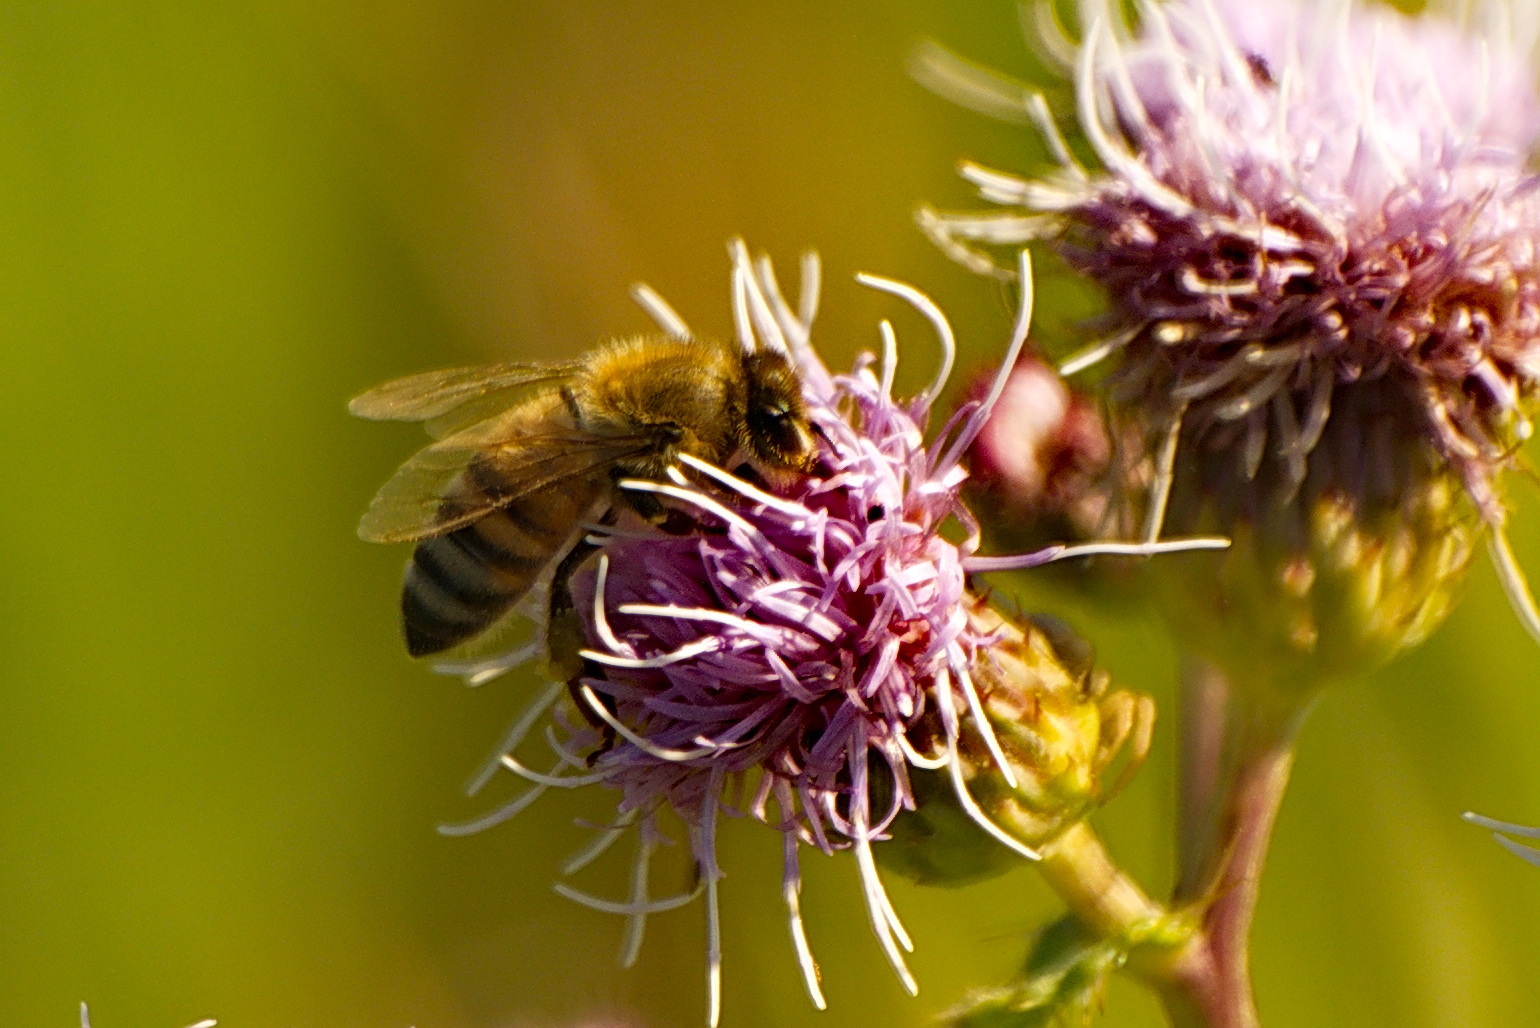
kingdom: Animalia
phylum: Arthropoda
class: Insecta
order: Hymenoptera
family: Apidae
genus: Apis
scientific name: Apis mellifera
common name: Honey bee
